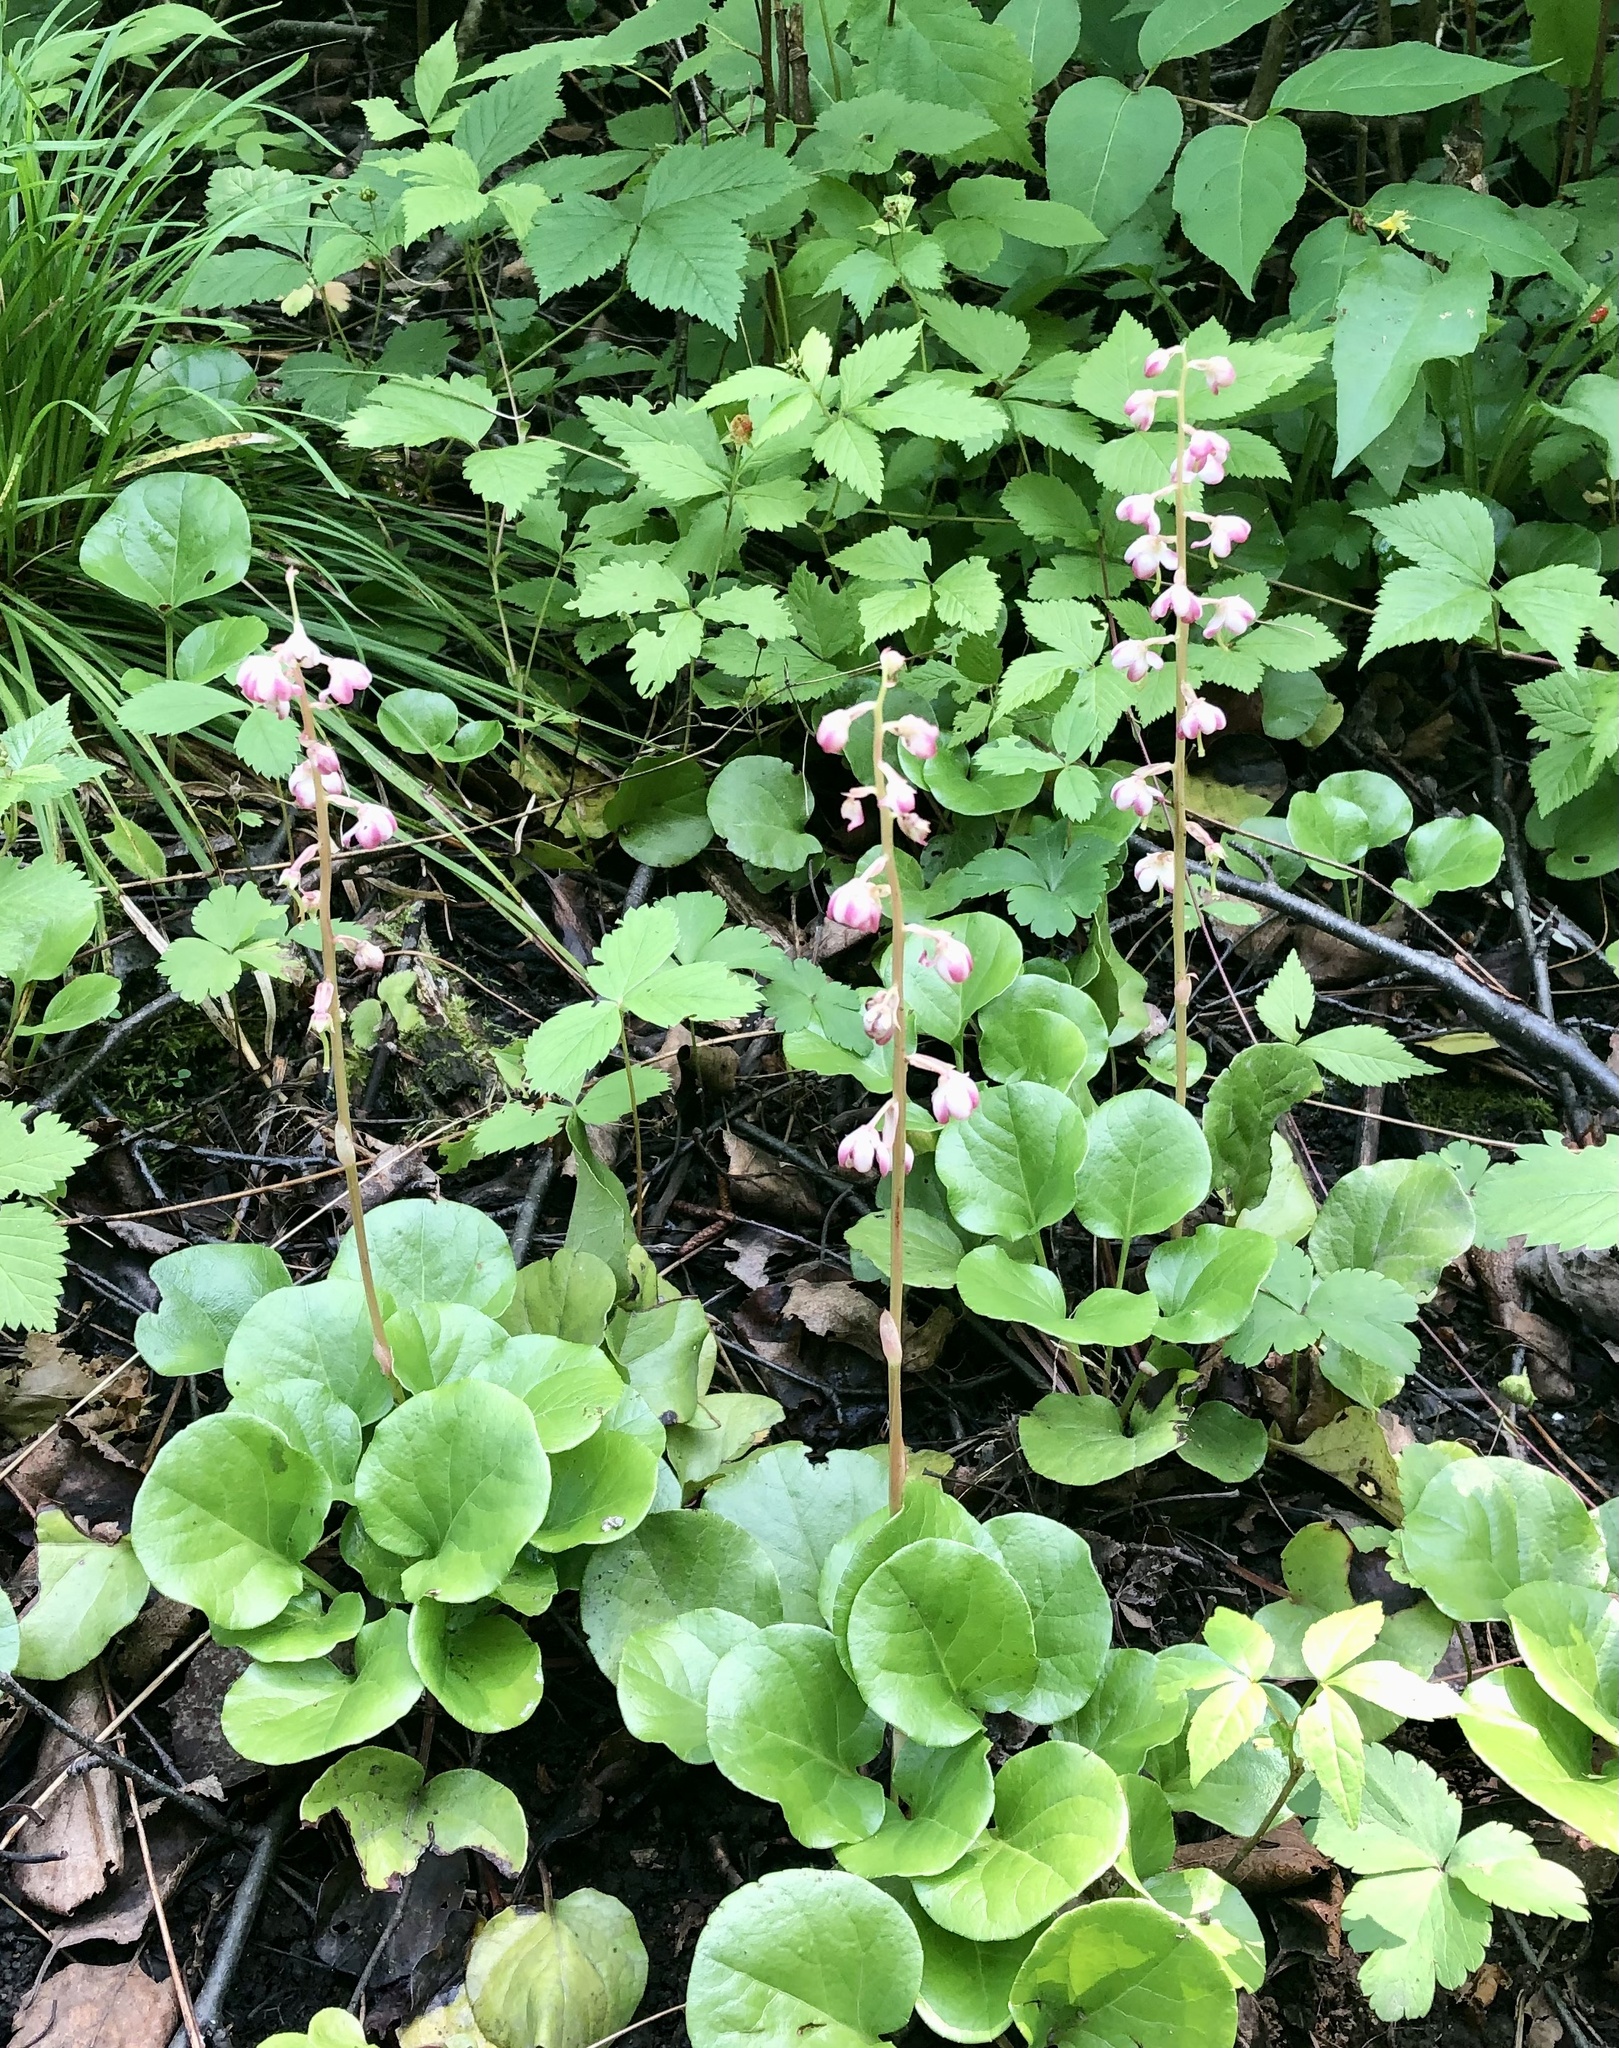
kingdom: Plantae
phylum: Tracheophyta
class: Magnoliopsida
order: Ericales
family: Ericaceae
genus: Pyrola
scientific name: Pyrola asarifolia
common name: Bog wintergreen
